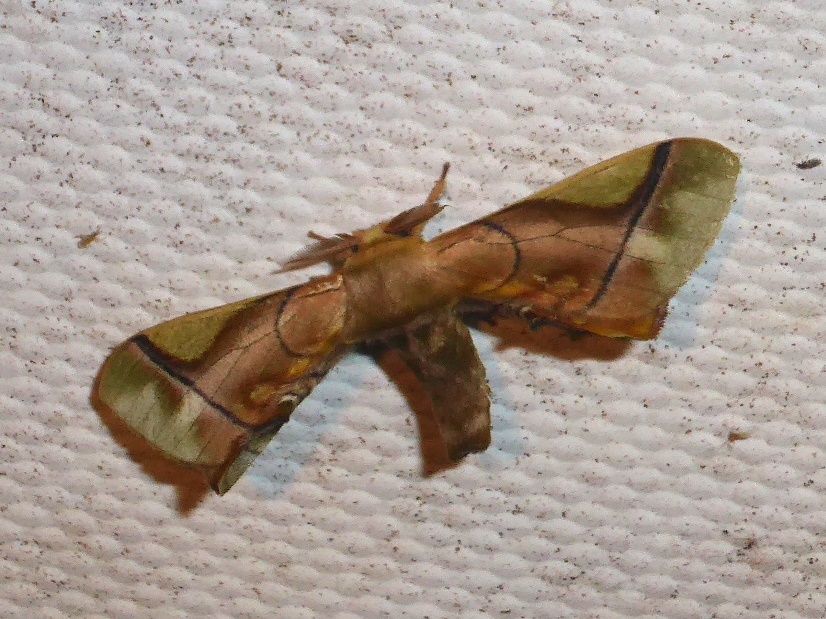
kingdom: Animalia
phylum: Arthropoda
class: Insecta
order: Lepidoptera
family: Bombycidae
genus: Epia
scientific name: Epia muscosa
